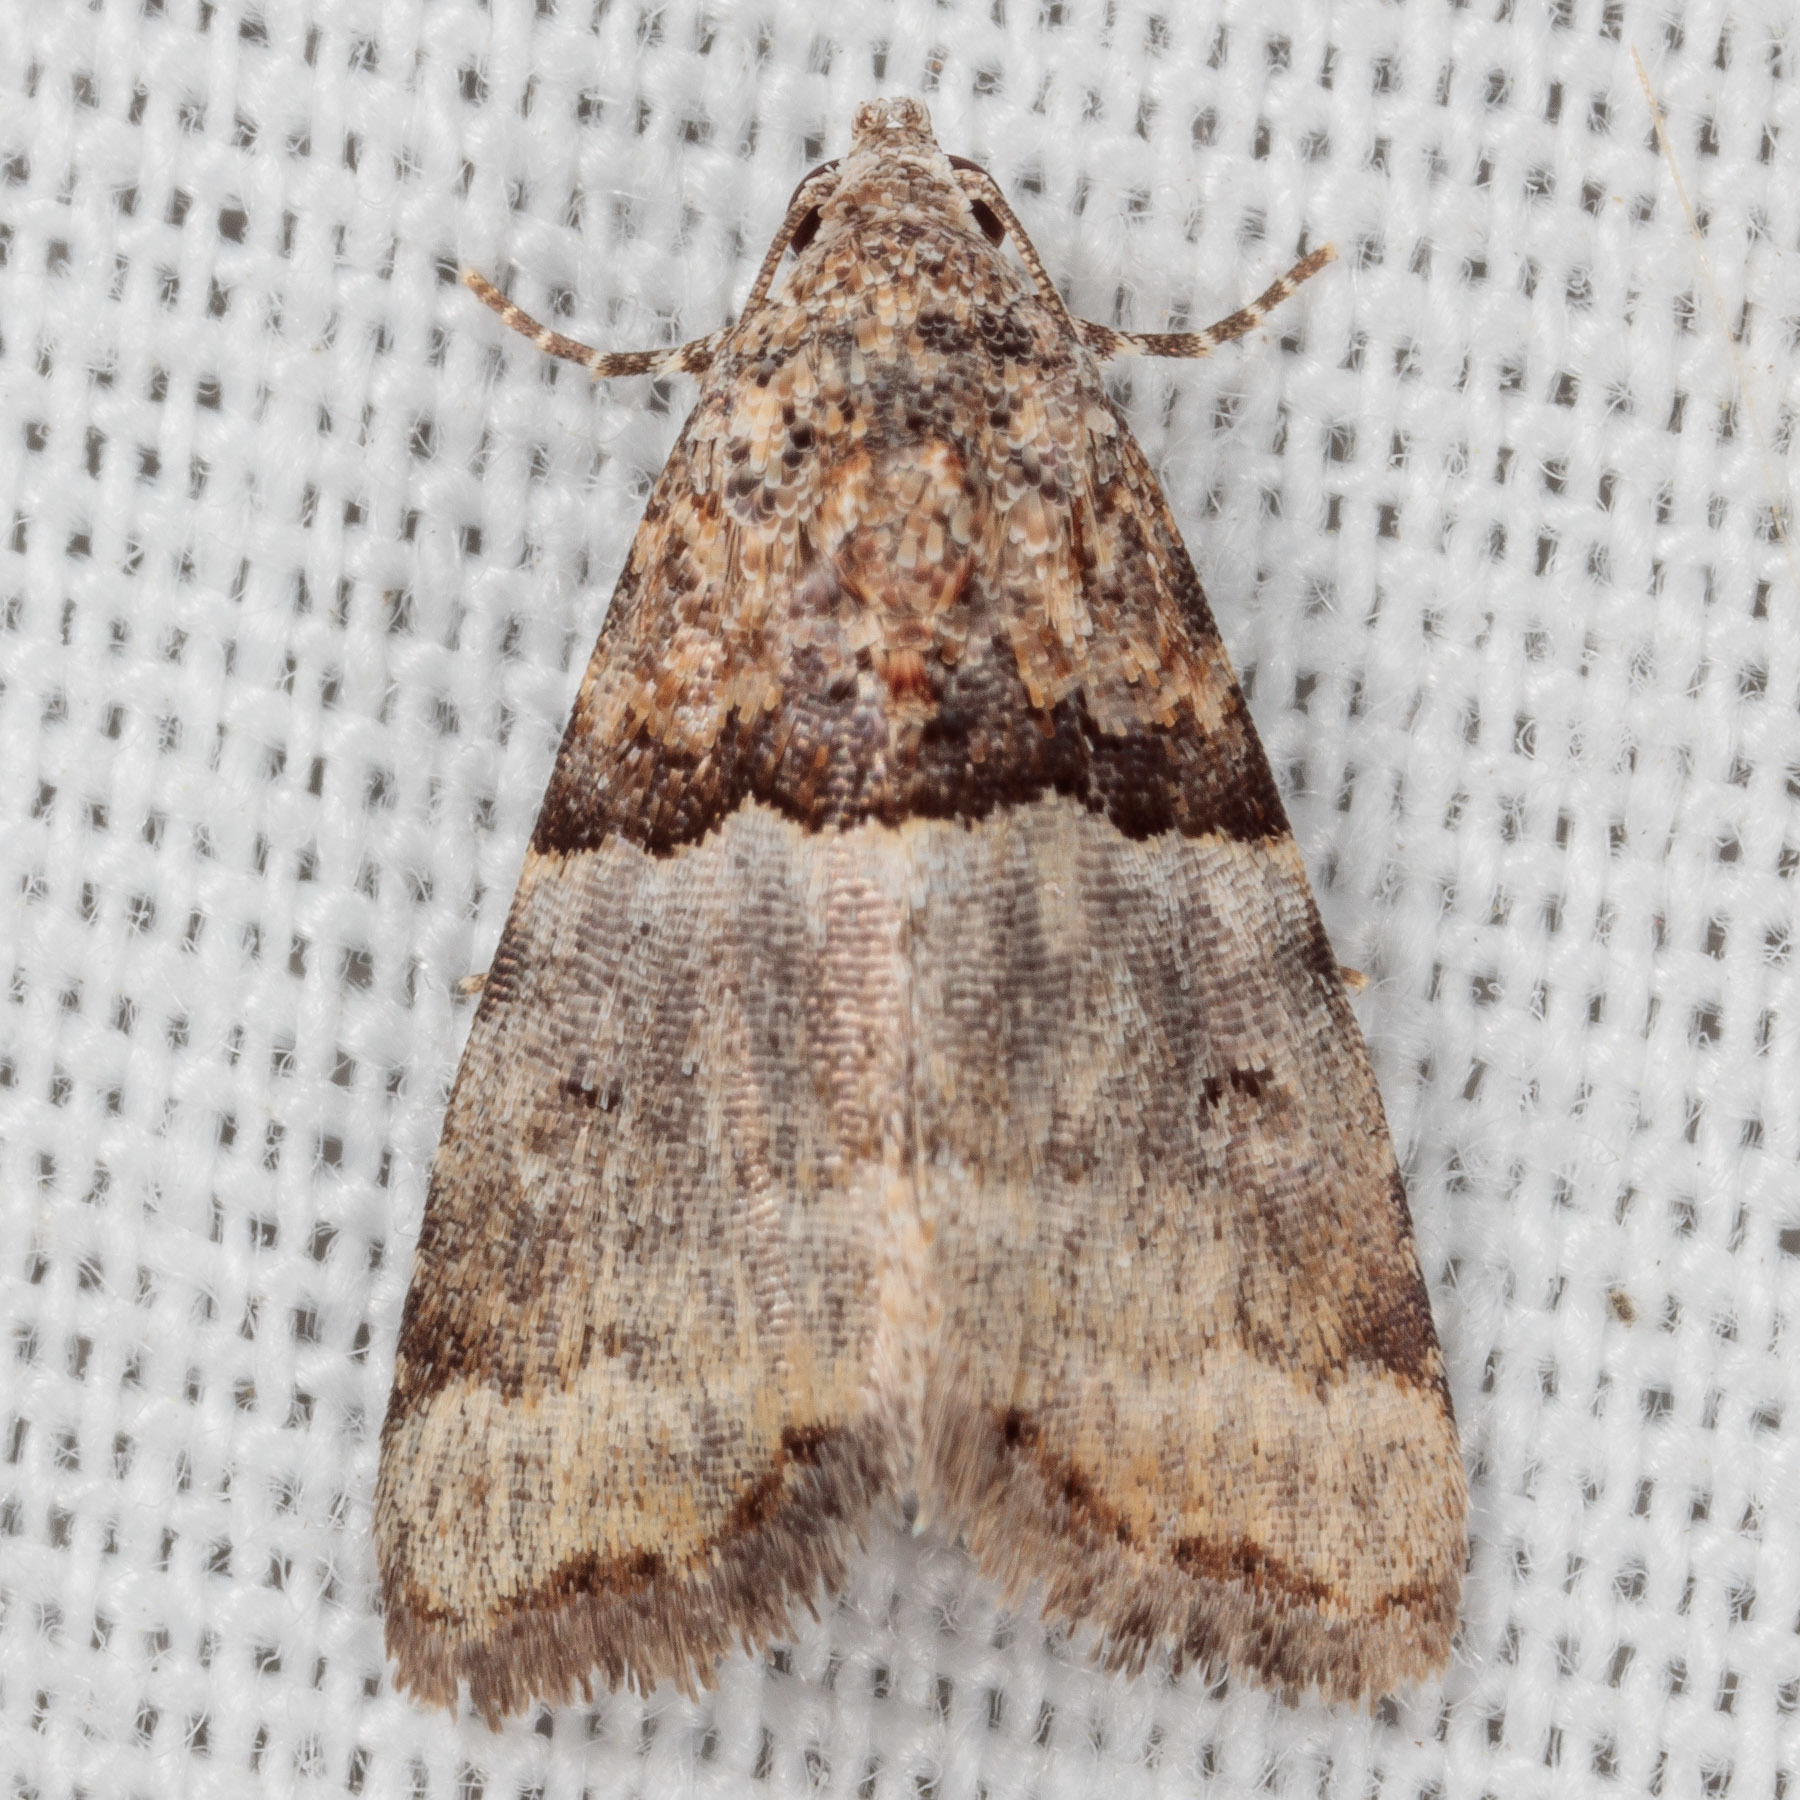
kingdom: Animalia
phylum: Arthropoda
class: Insecta
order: Lepidoptera
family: Noctuidae
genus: Cobubatha
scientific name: Cobubatha dividua
